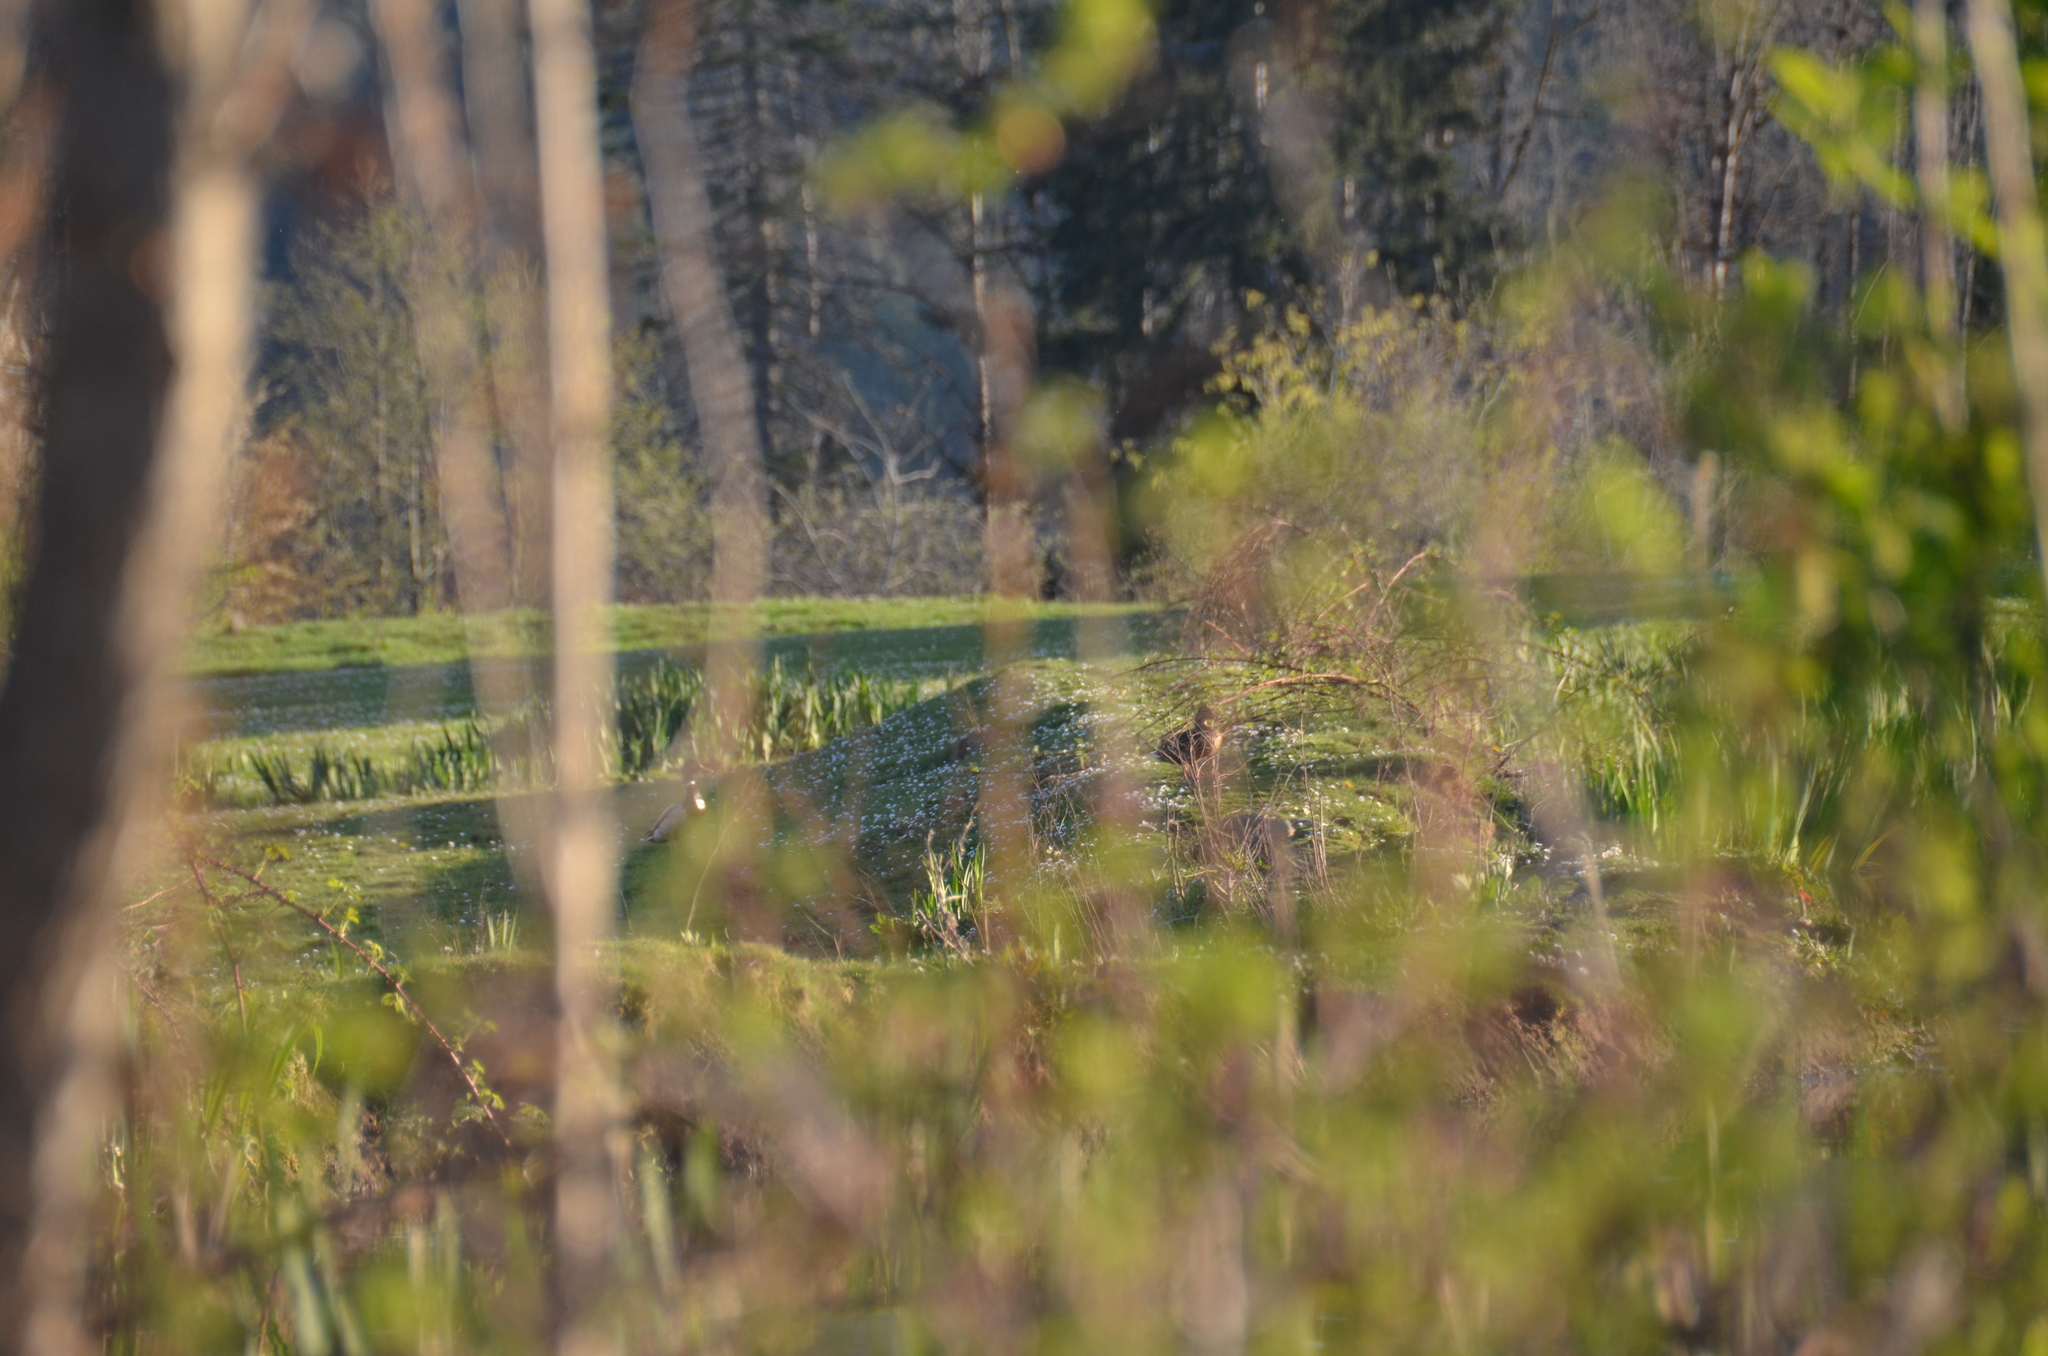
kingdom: Animalia
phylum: Chordata
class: Aves
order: Anseriformes
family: Anatidae
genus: Anas
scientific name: Anas platyrhynchos
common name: Mallard
